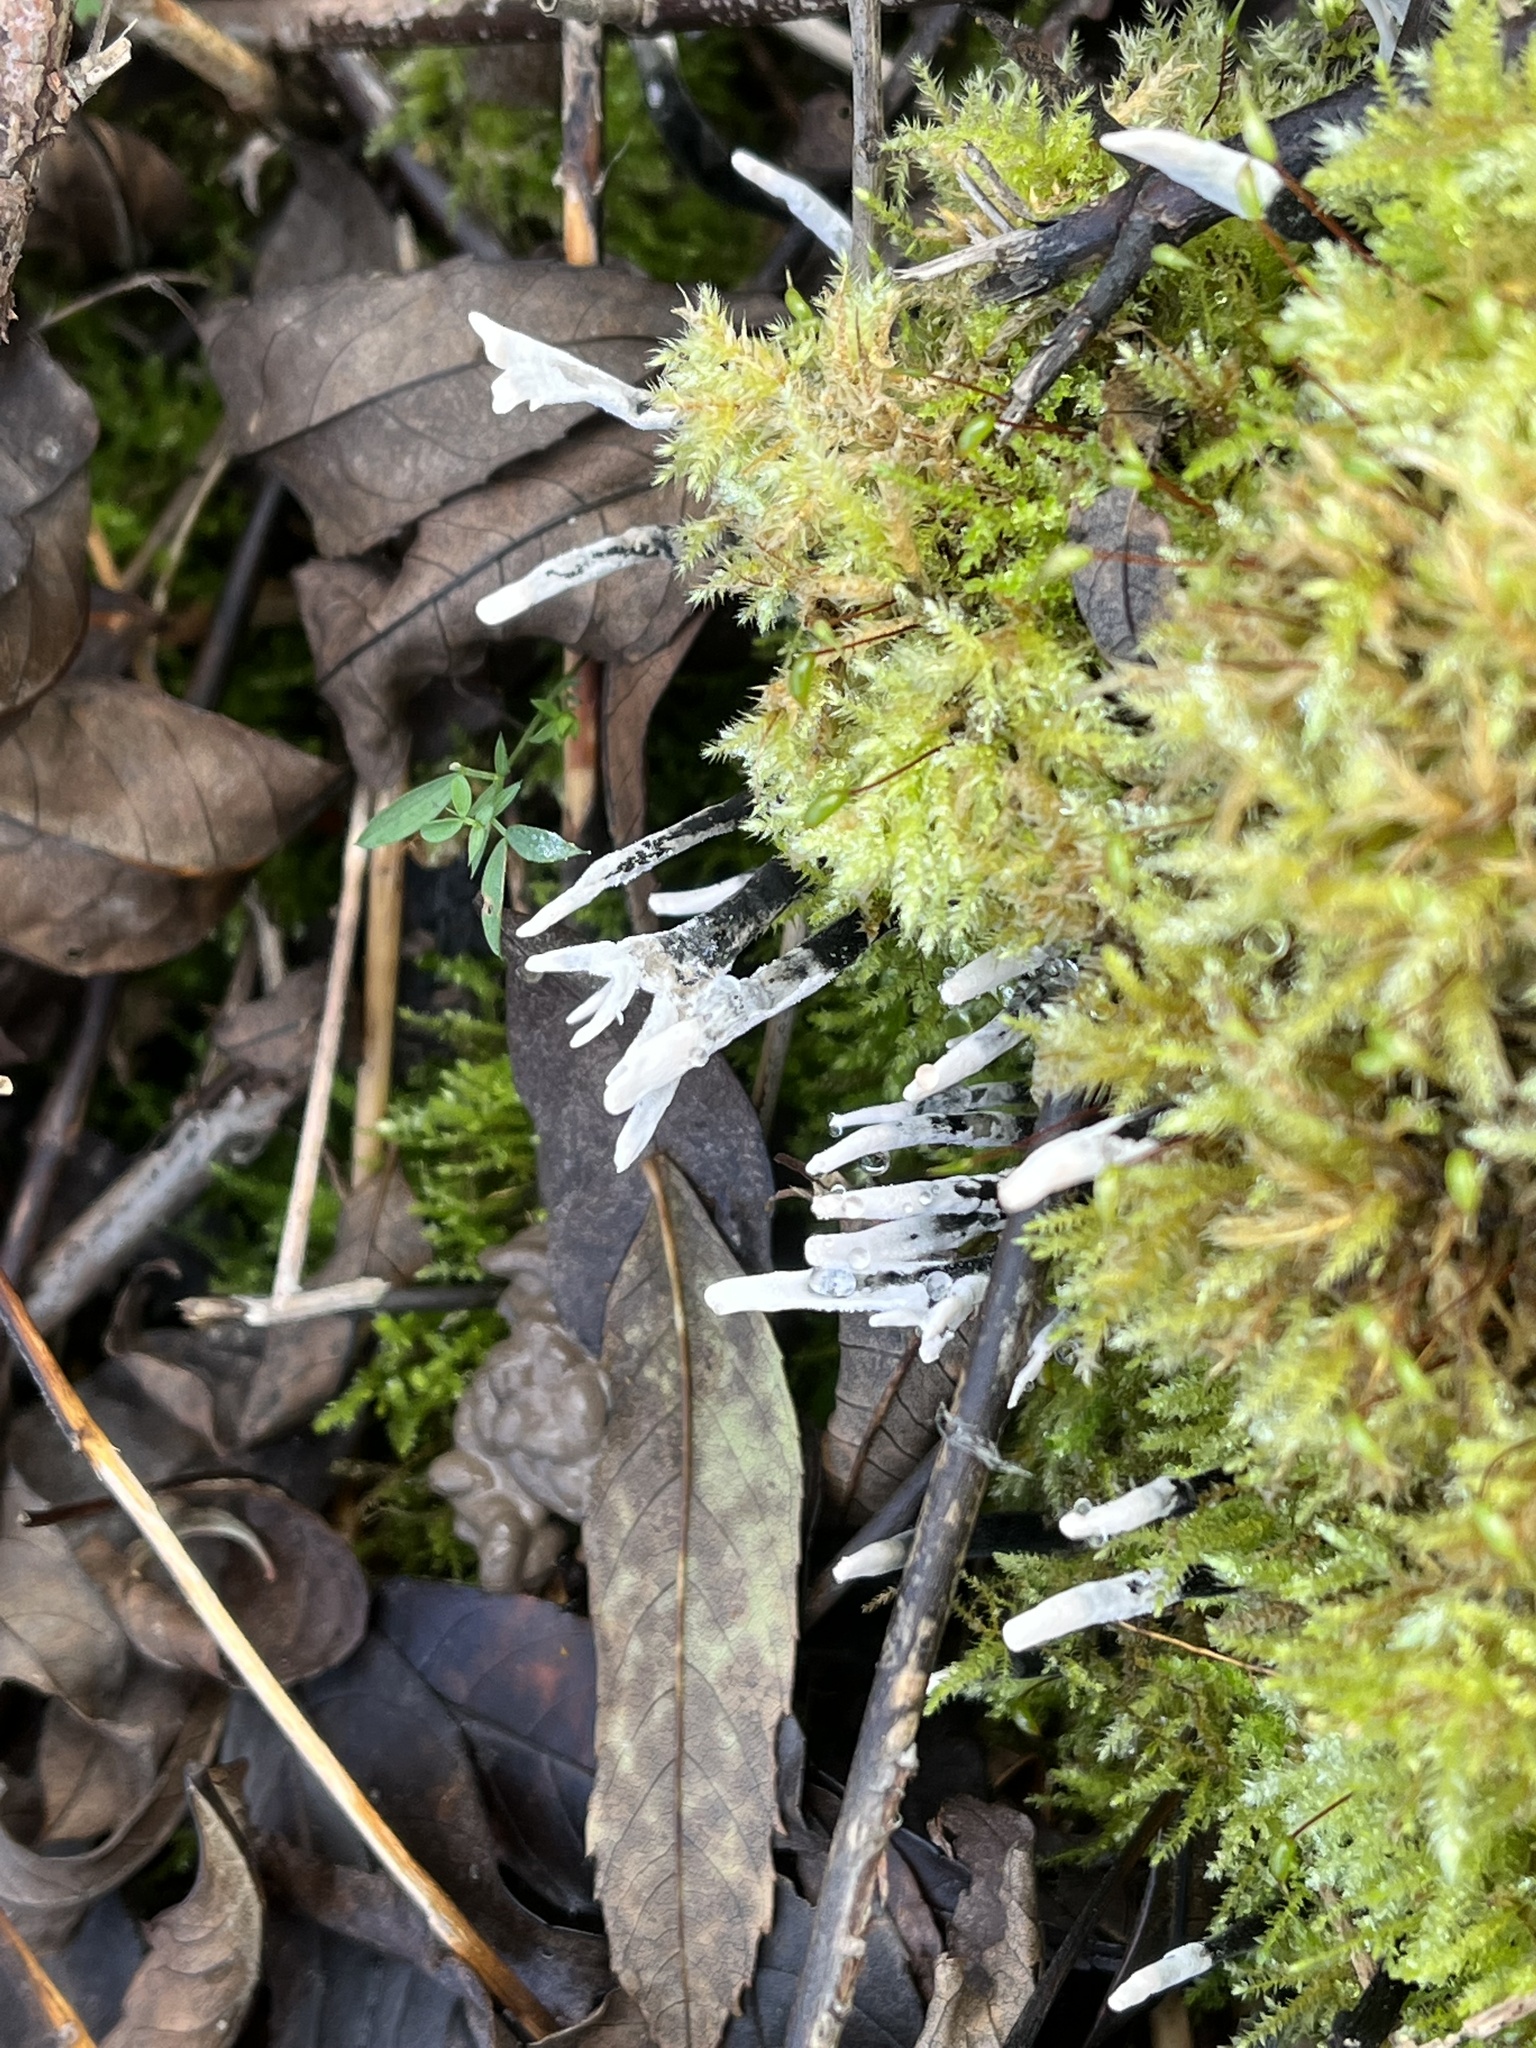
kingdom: Fungi
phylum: Ascomycota
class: Sordariomycetes
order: Xylariales
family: Xylariaceae
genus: Xylaria
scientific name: Xylaria hypoxylon
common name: Candle-snuff fungus
